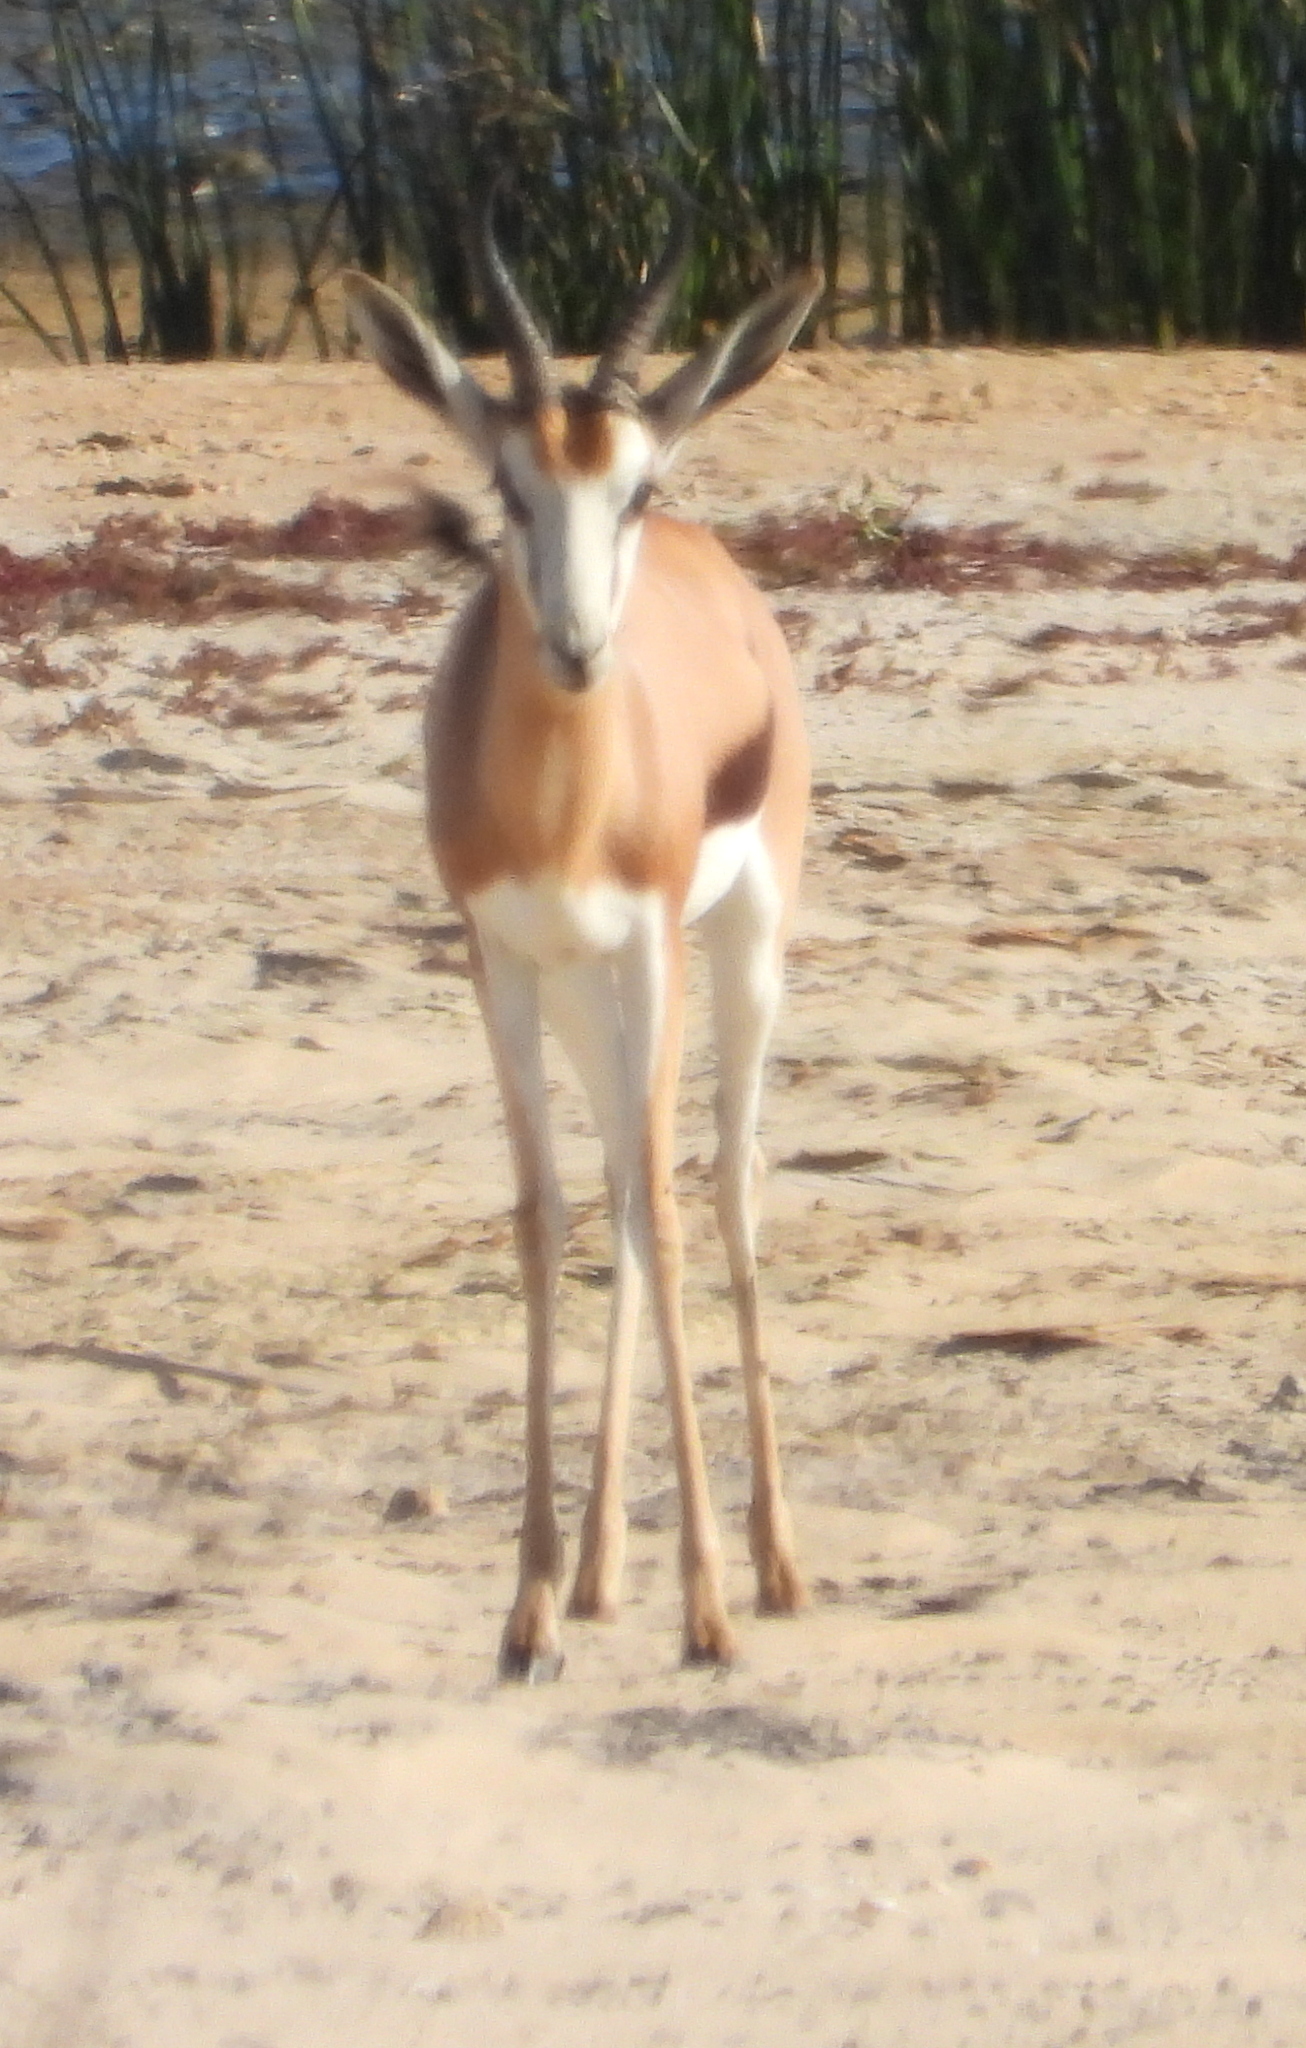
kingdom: Animalia
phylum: Chordata
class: Mammalia
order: Artiodactyla
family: Bovidae
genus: Antidorcas
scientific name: Antidorcas marsupialis
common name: Springbok
